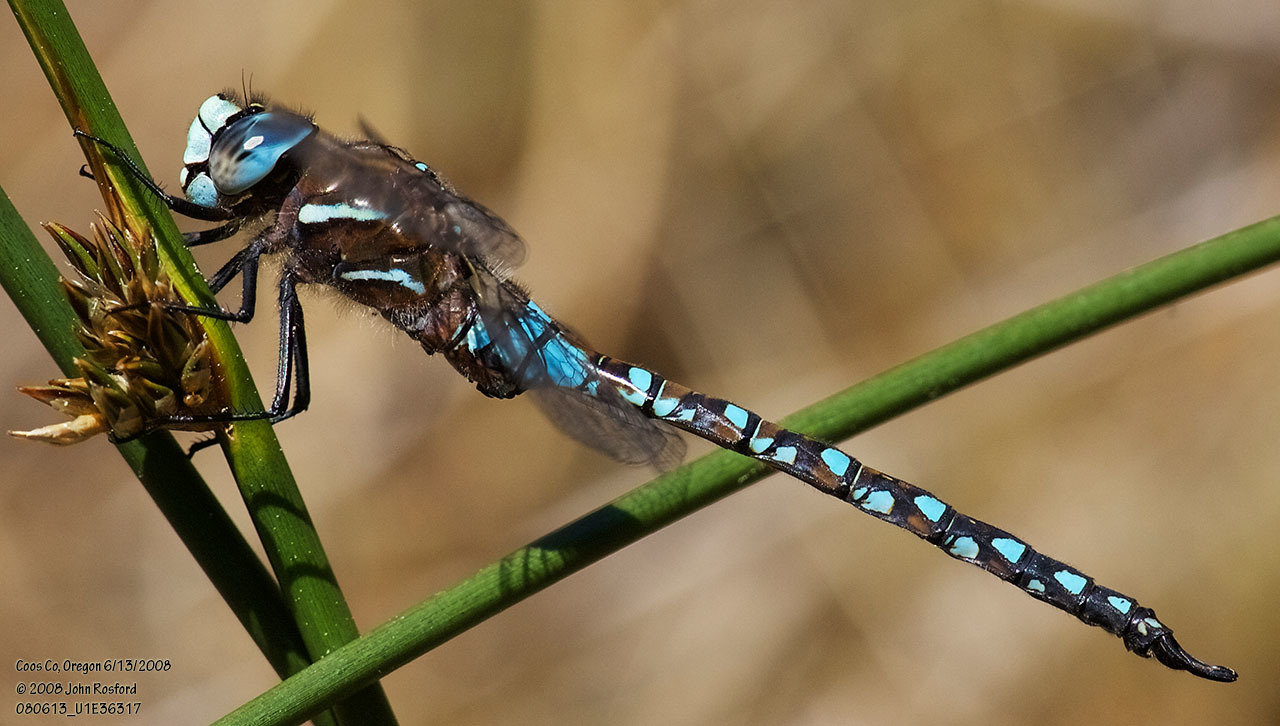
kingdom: Animalia
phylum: Arthropoda
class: Insecta
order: Odonata
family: Aeshnidae
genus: Rhionaeschna
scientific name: Rhionaeschna californica
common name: California darner
